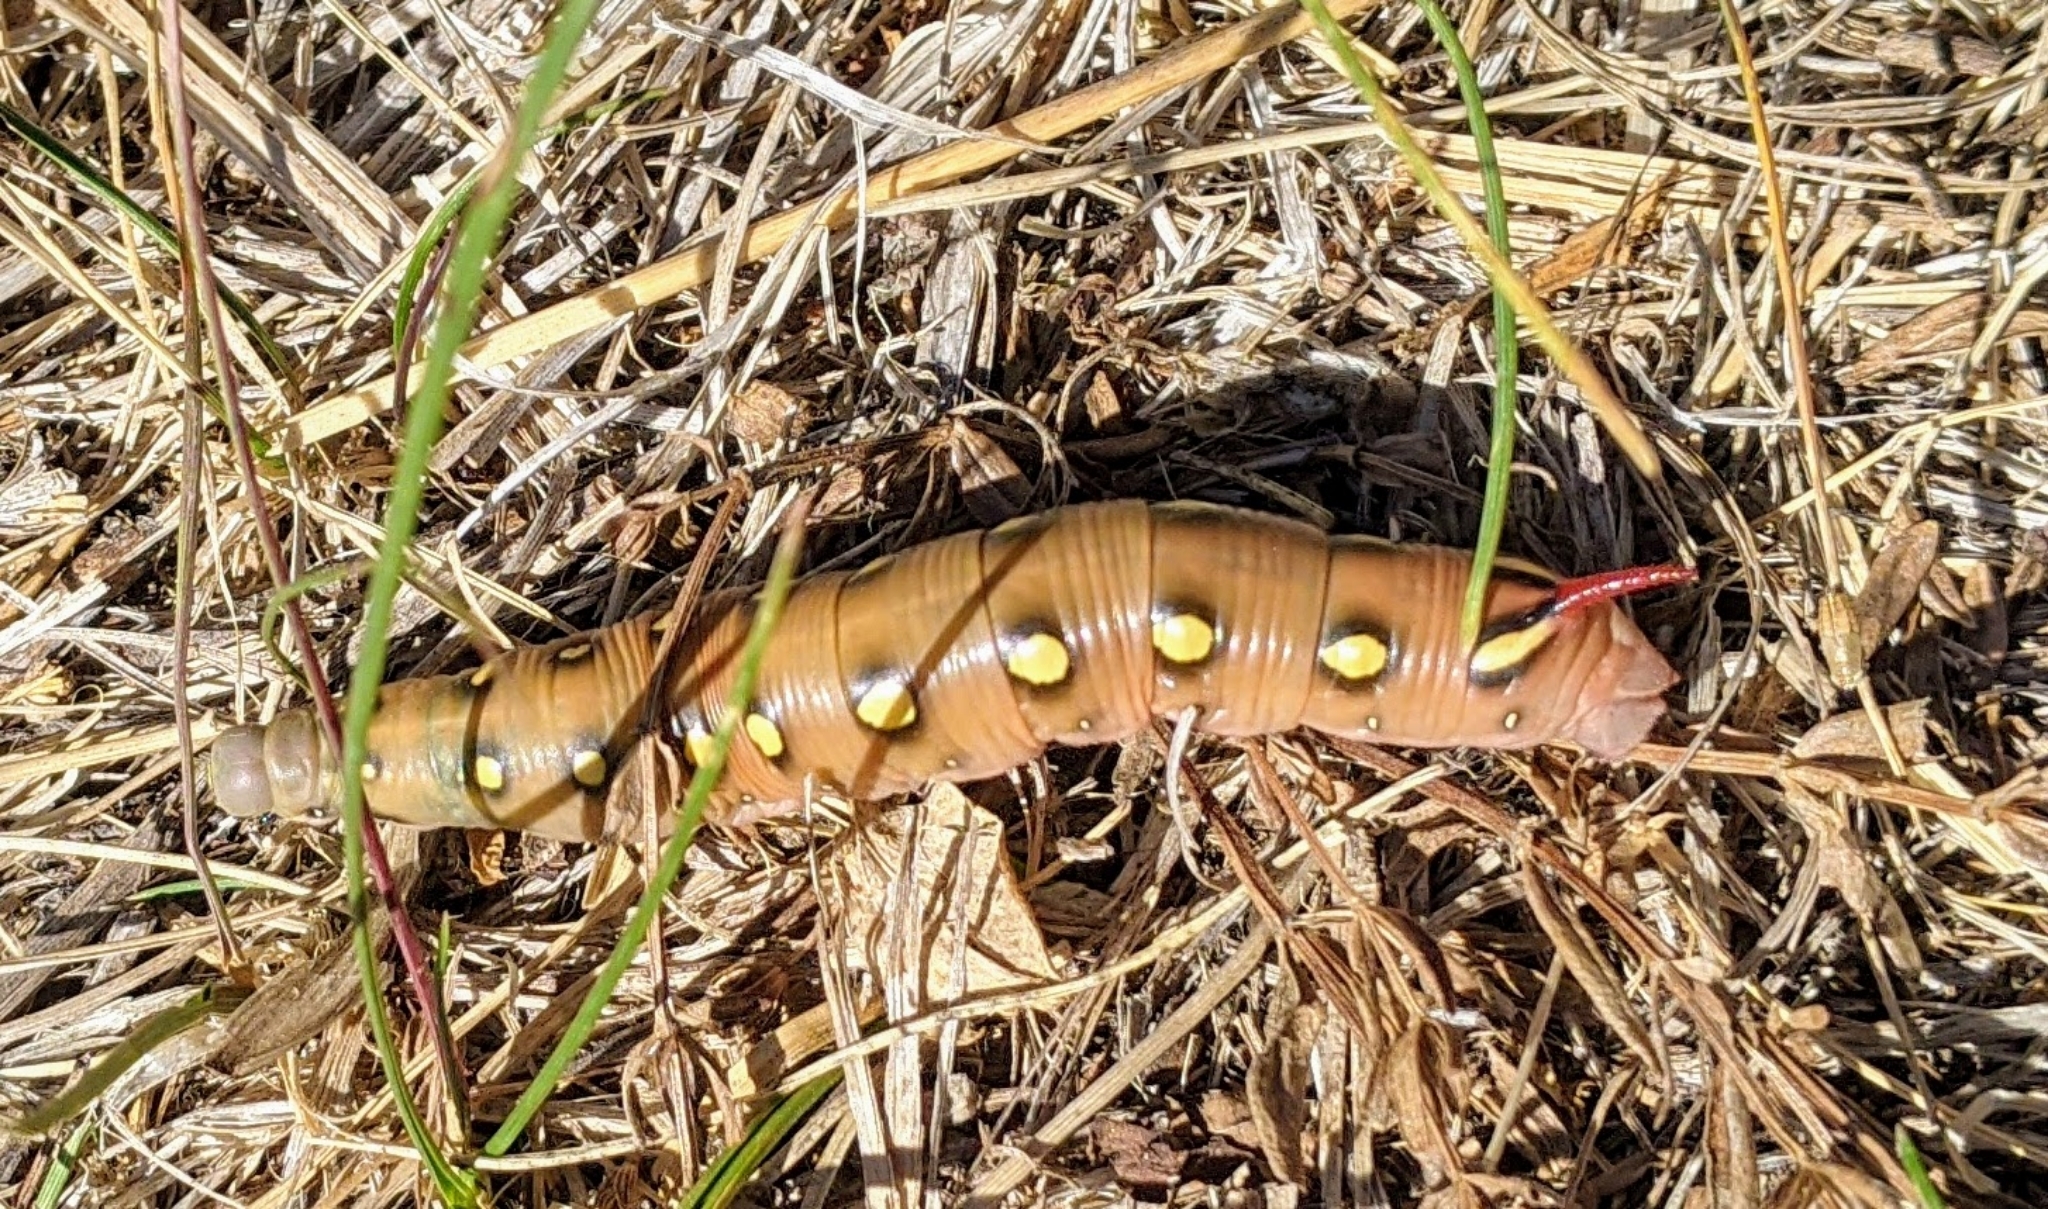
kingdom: Animalia
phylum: Arthropoda
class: Insecta
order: Lepidoptera
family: Sphingidae
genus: Hyles
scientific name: Hyles gallii
